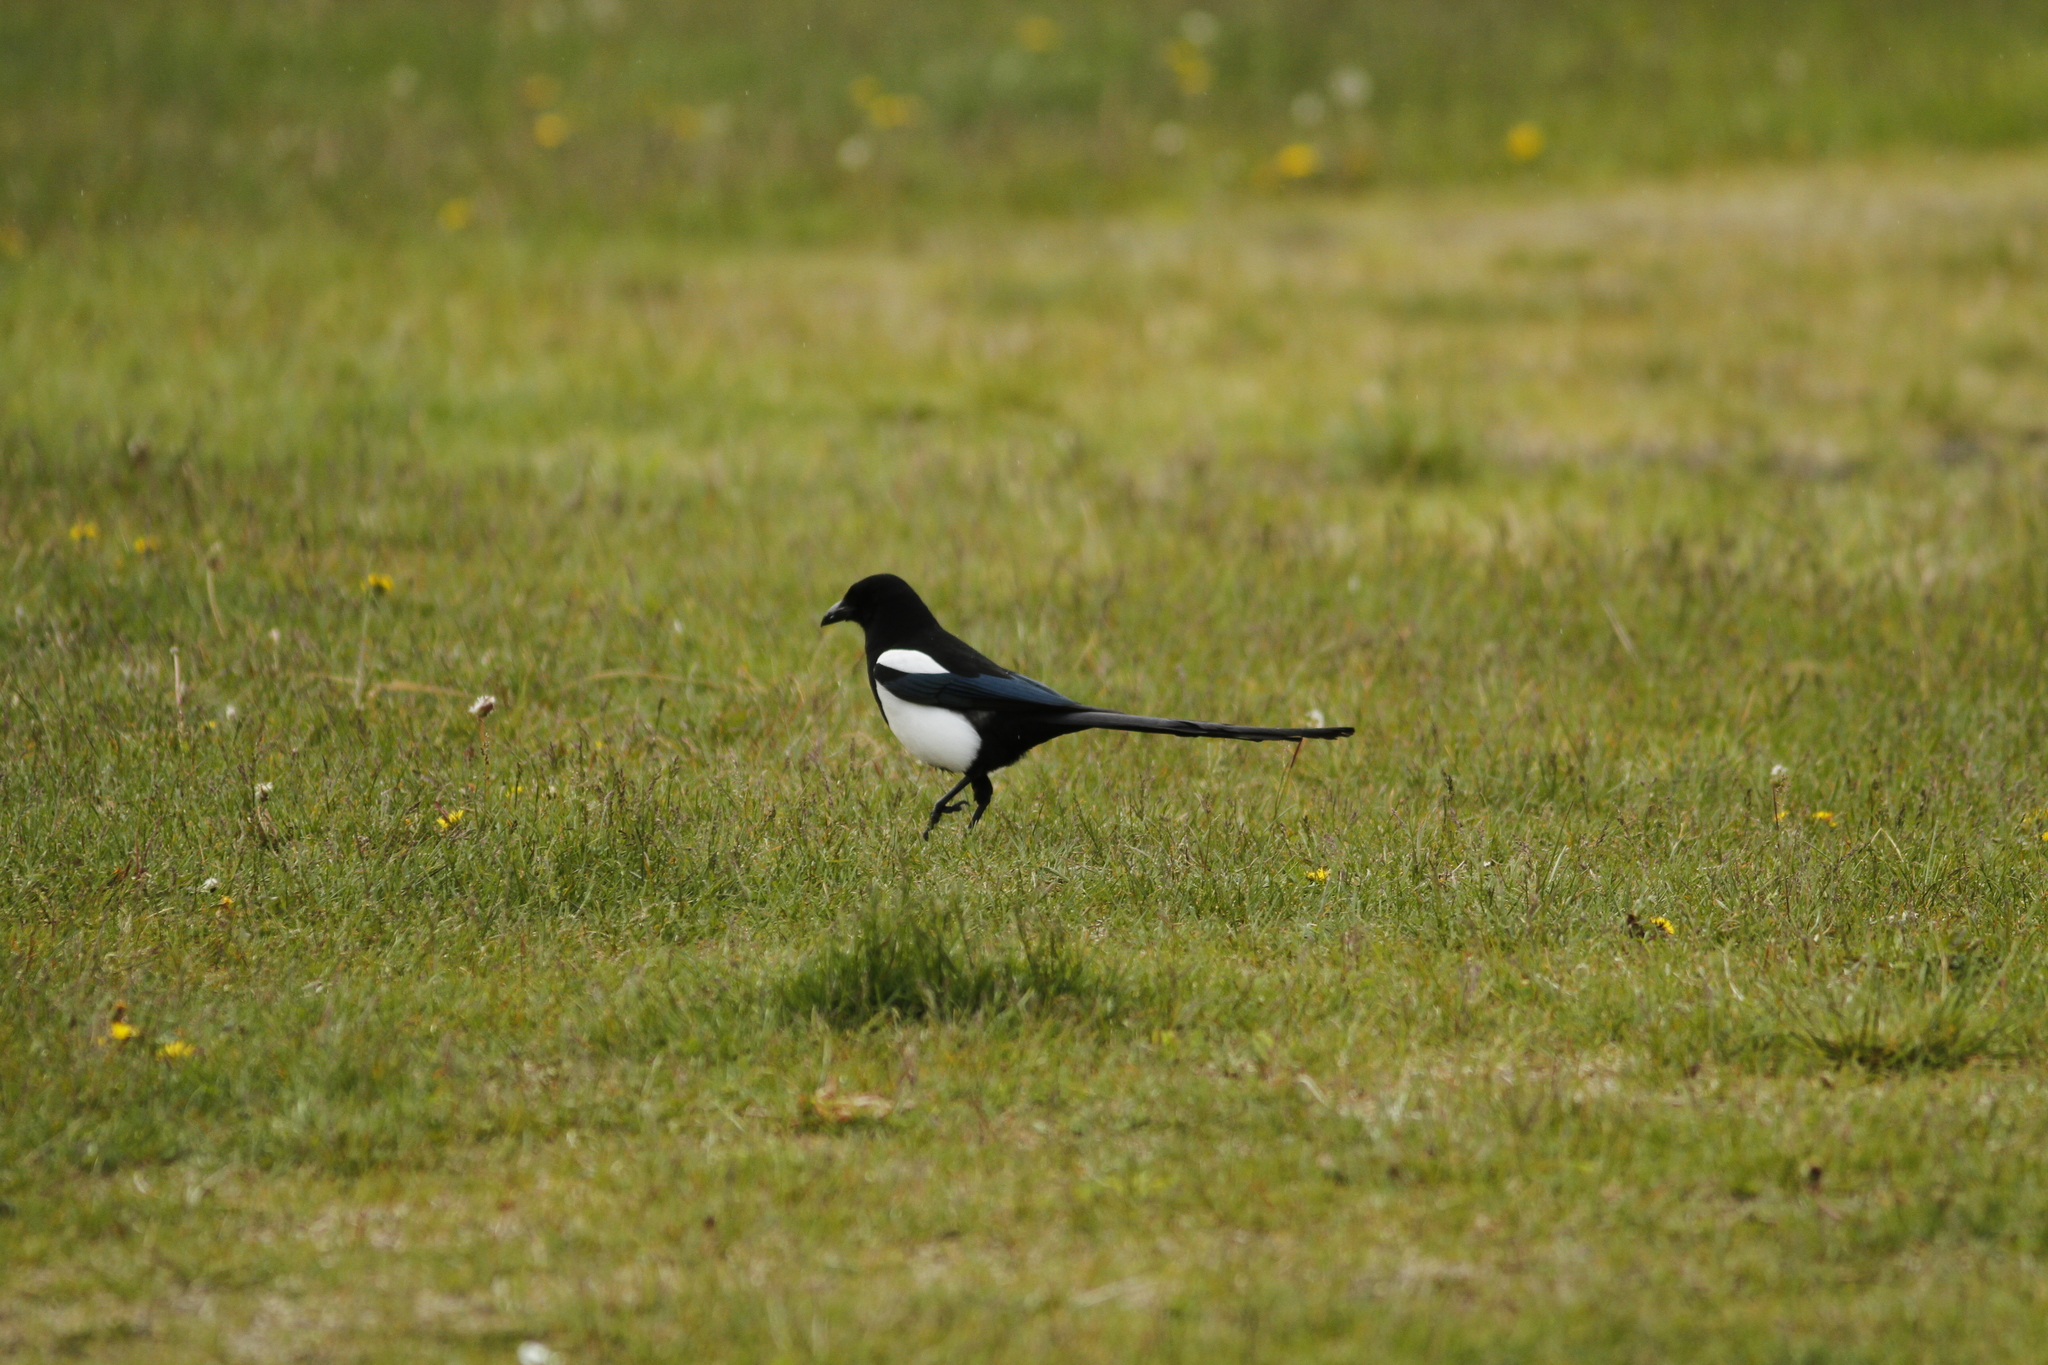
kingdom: Animalia
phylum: Chordata
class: Aves
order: Passeriformes
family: Corvidae
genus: Pica
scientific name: Pica hudsonia
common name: Black-billed magpie
